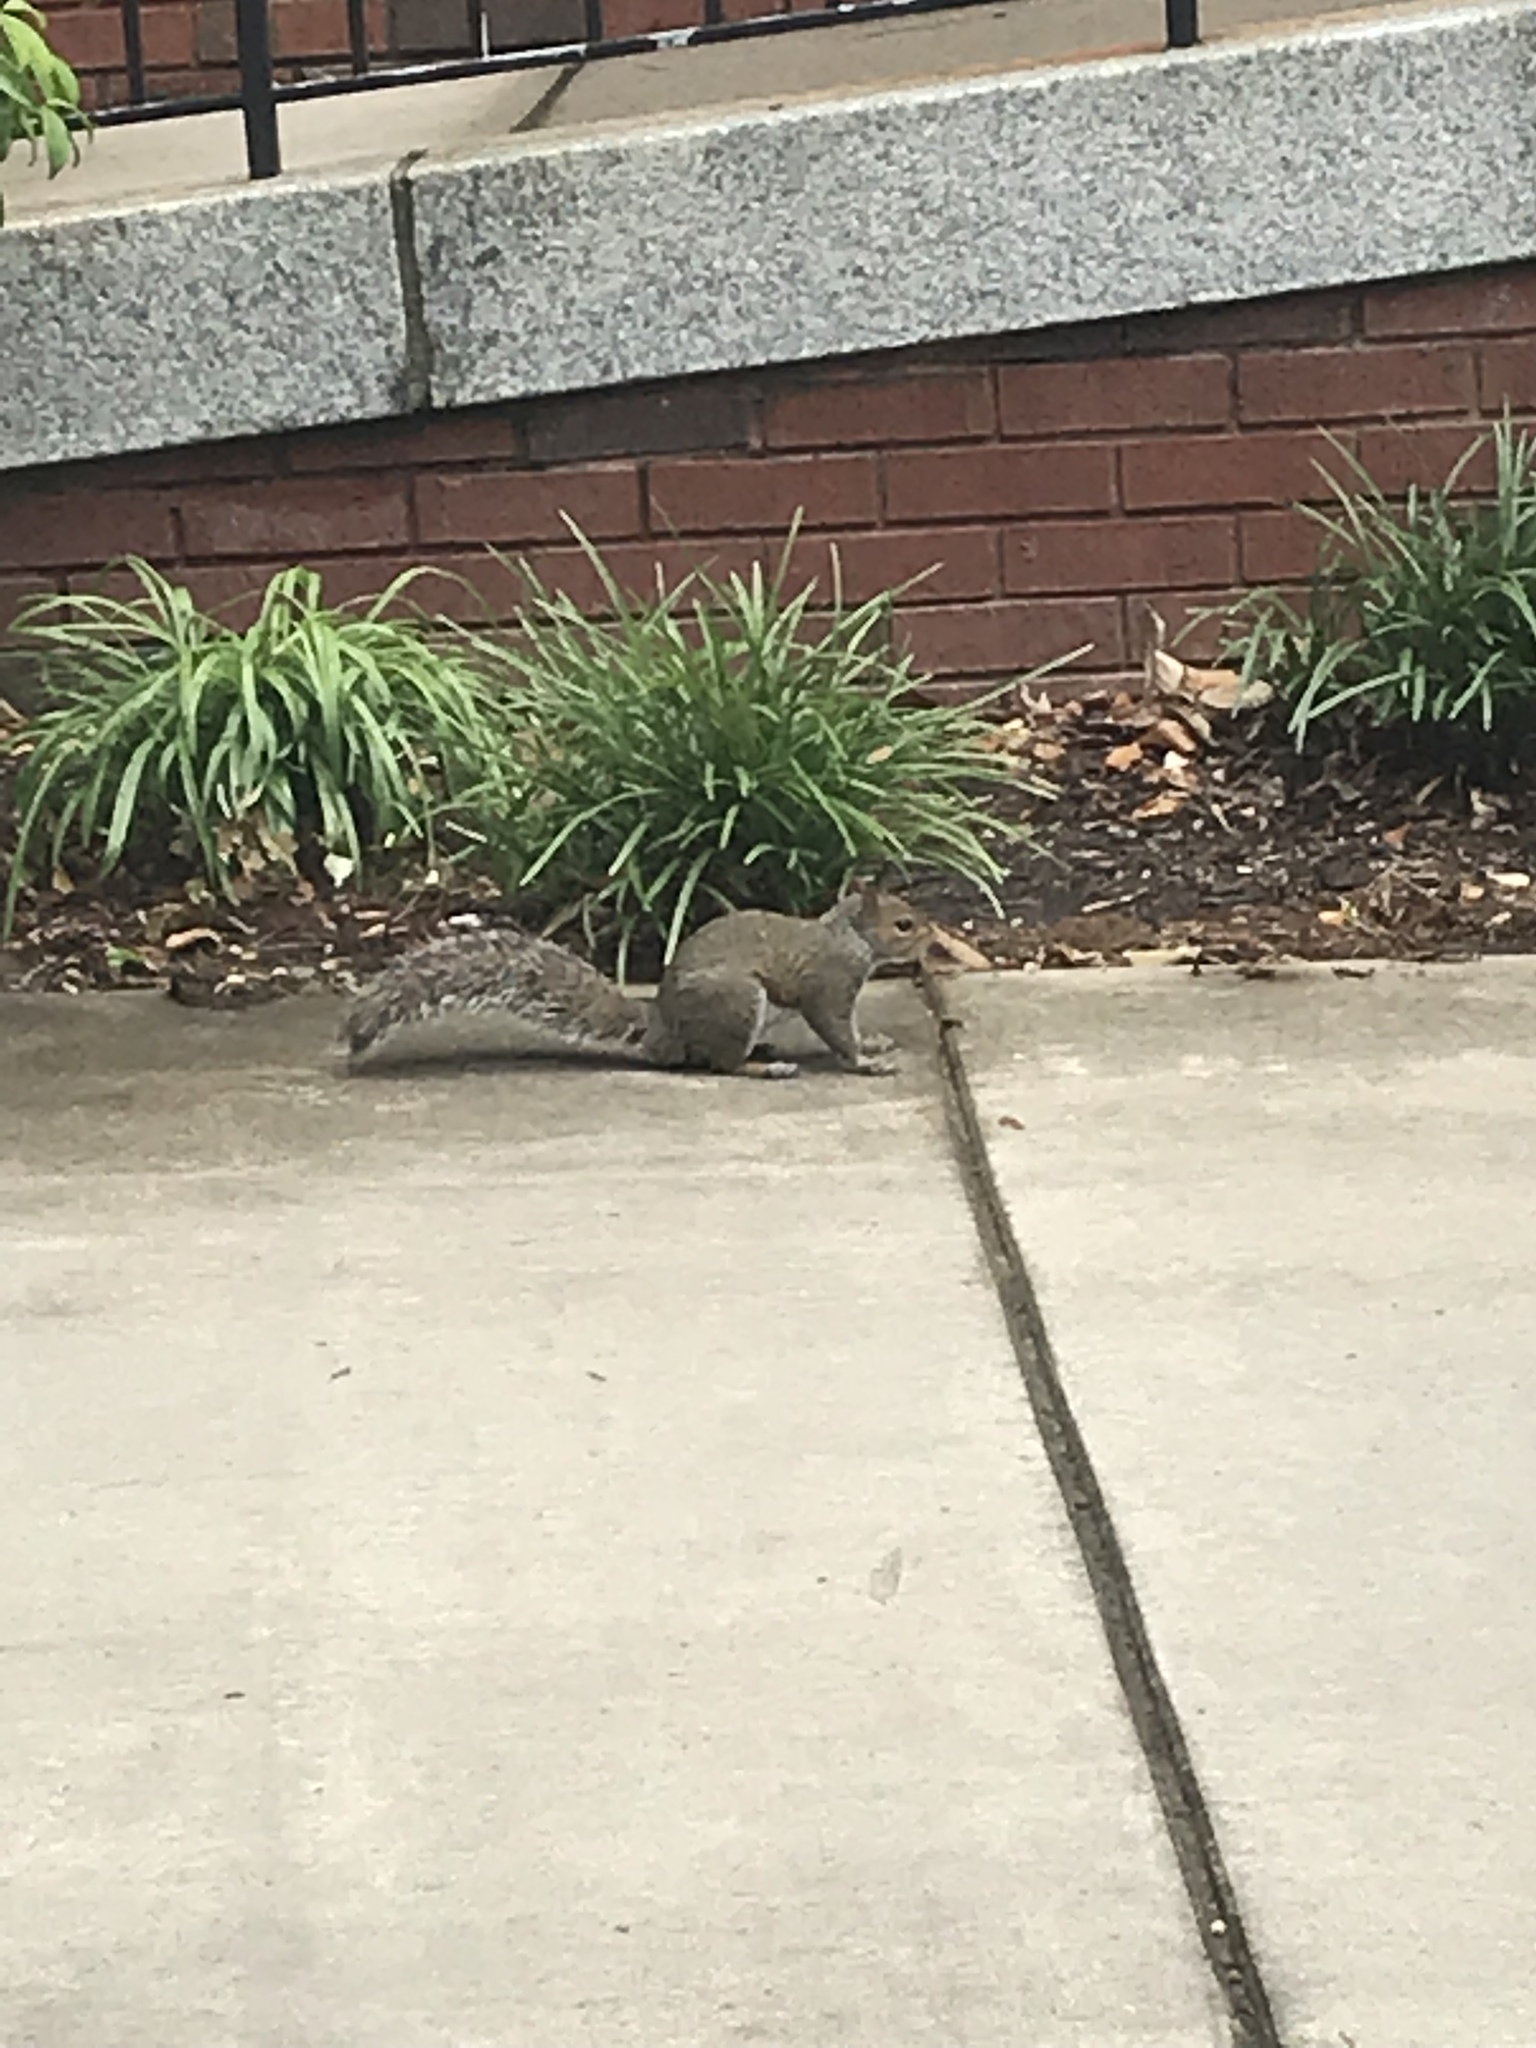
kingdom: Animalia
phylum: Chordata
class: Mammalia
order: Rodentia
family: Sciuridae
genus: Sciurus
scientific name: Sciurus carolinensis
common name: Eastern gray squirrel
